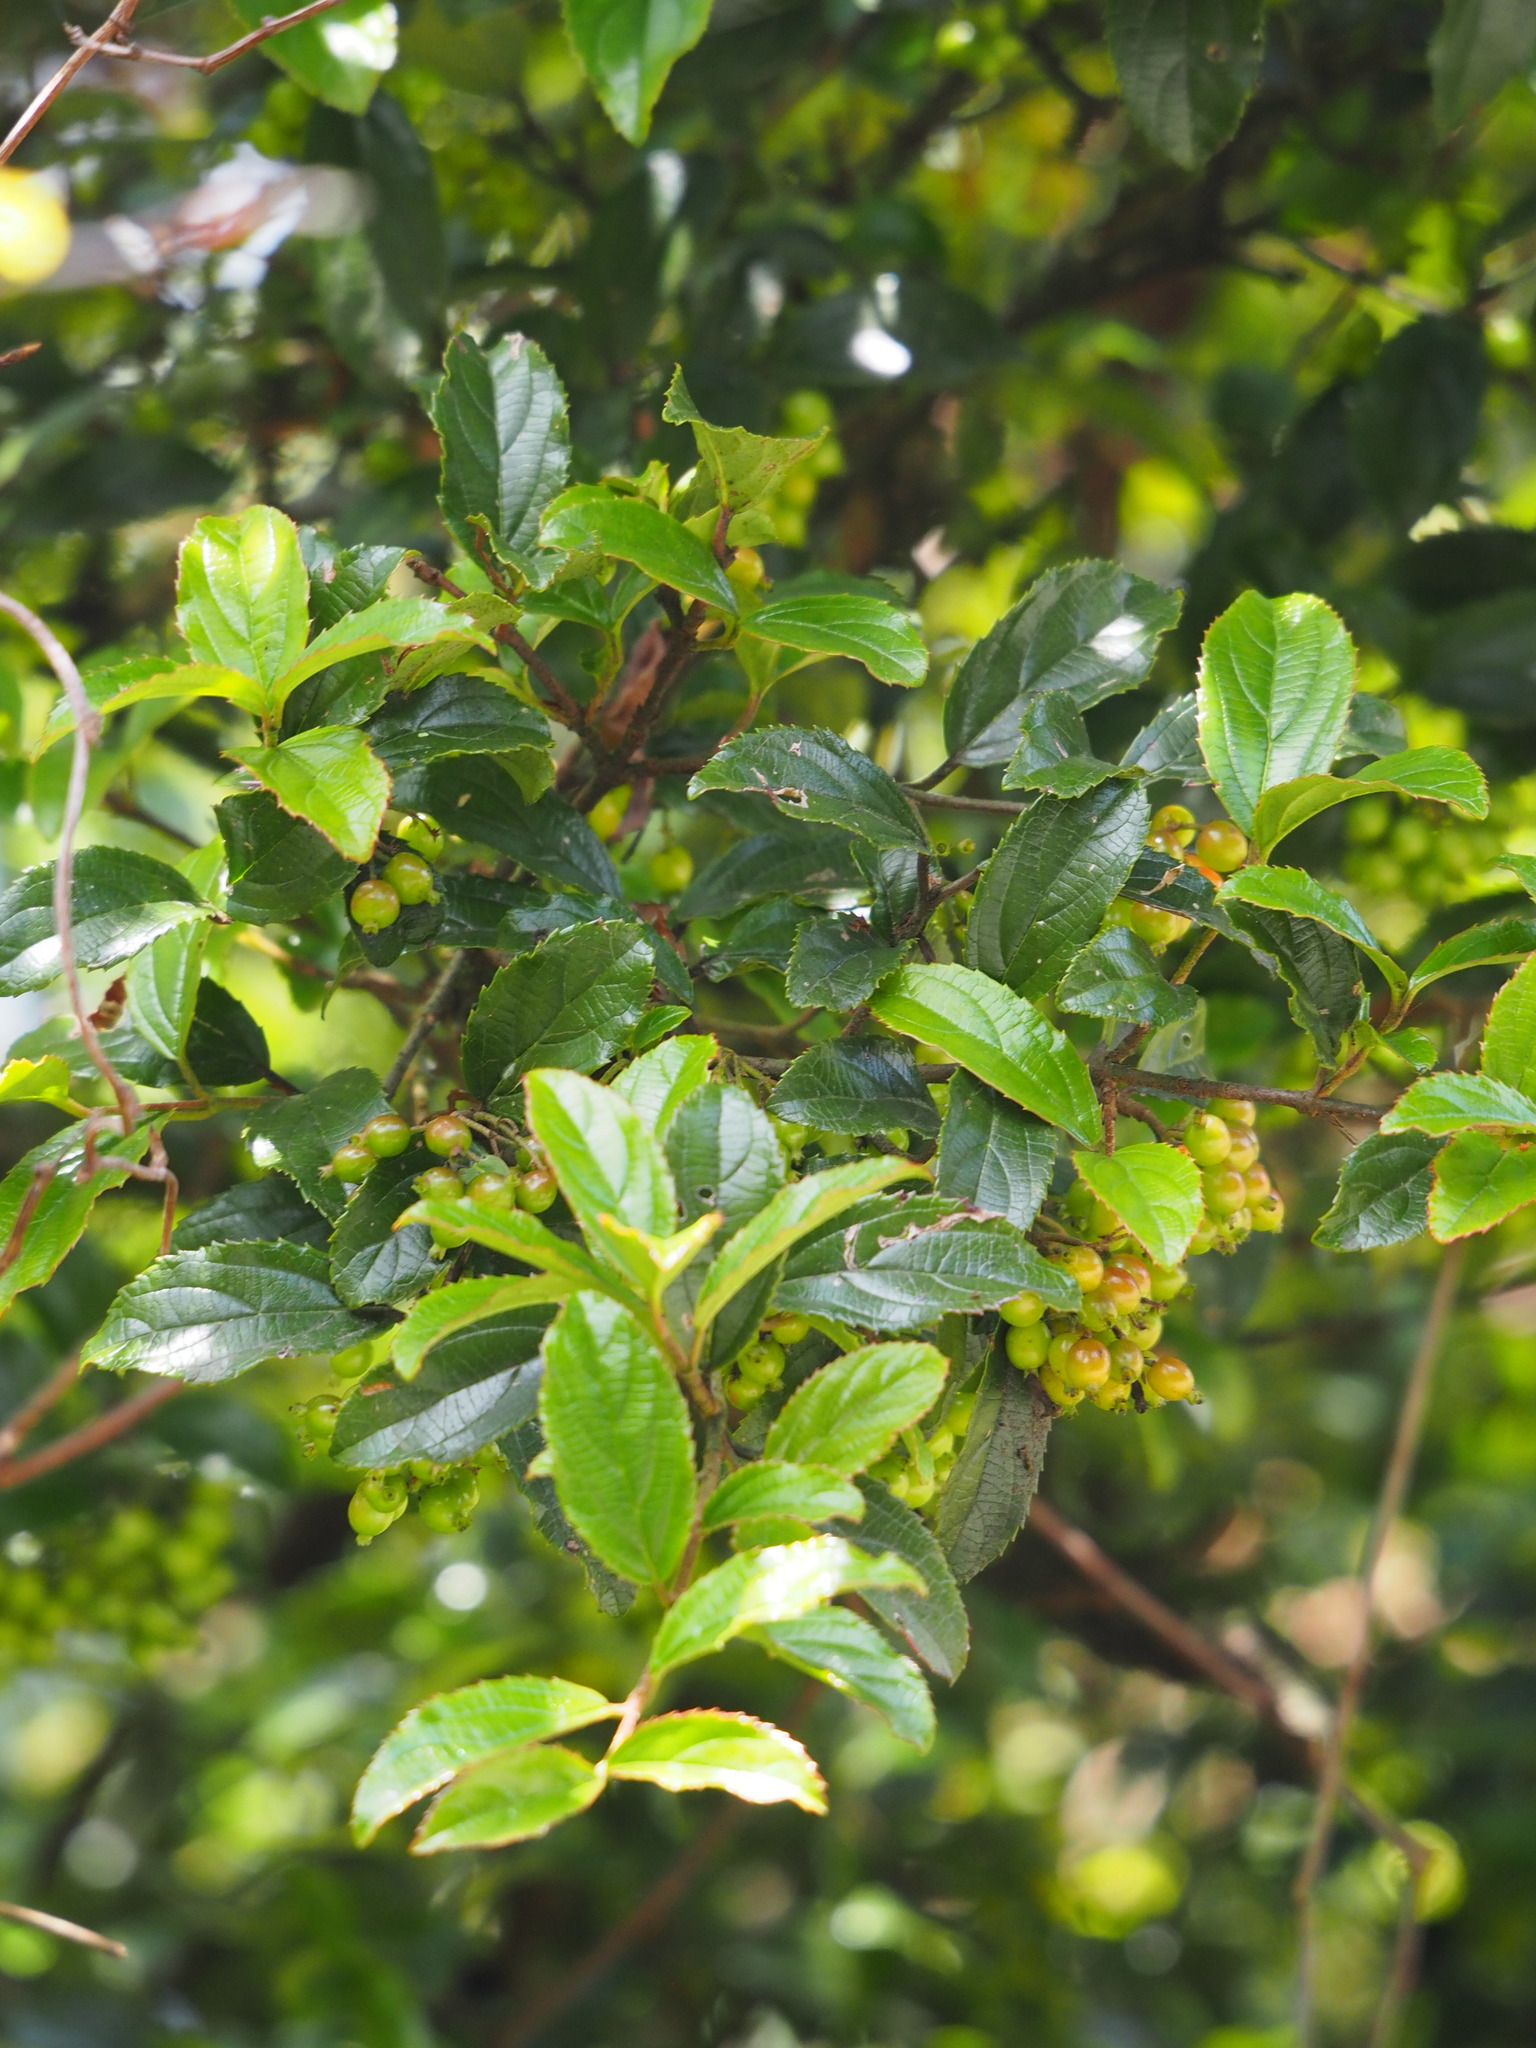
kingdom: Plantae
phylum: Tracheophyta
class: Magnoliopsida
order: Dipsacales
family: Viburnaceae
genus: Viburnum
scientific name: Viburnum suspensum
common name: Viburnum
